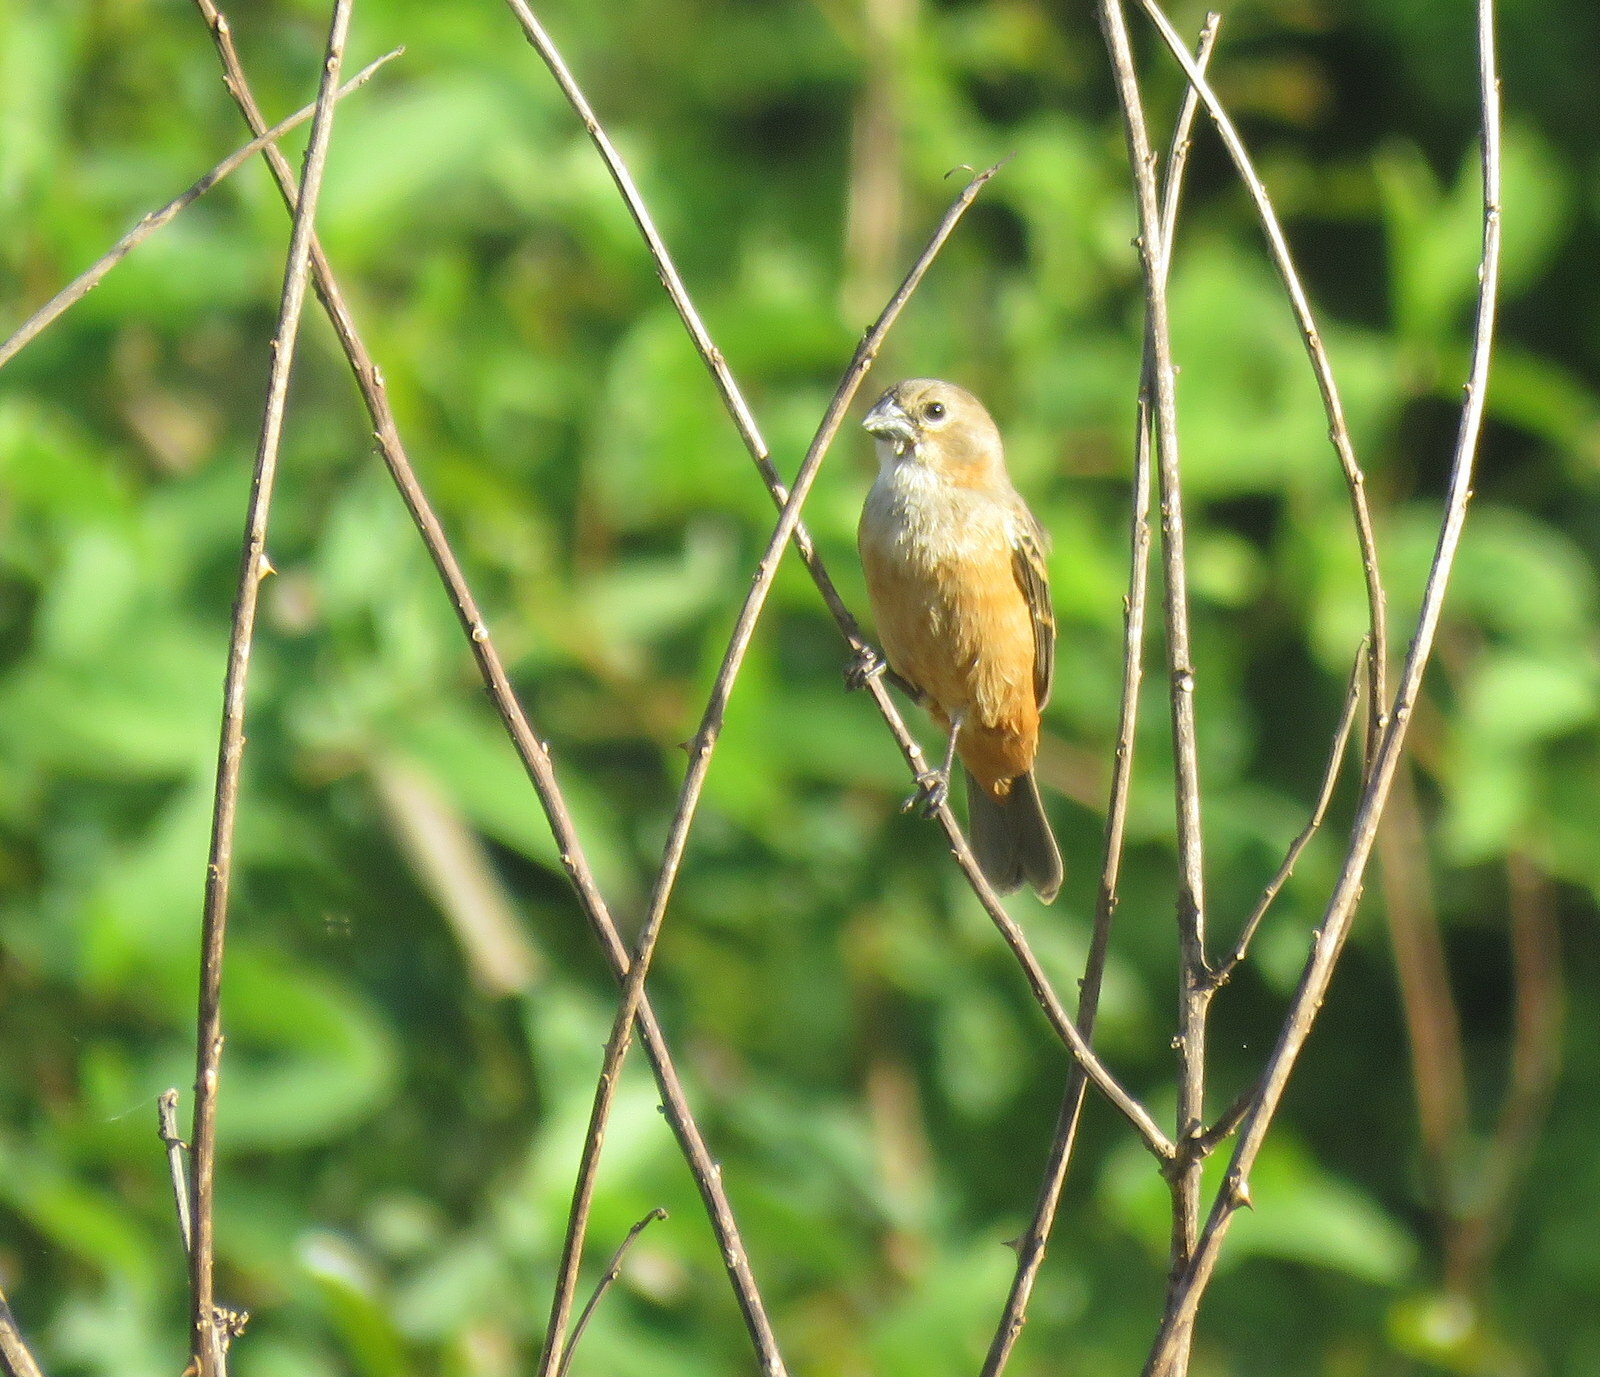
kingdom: Animalia
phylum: Chordata
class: Aves
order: Passeriformes
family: Thraupidae
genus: Sporophila
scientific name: Sporophila collaris
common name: Rusty-collared seedeater
